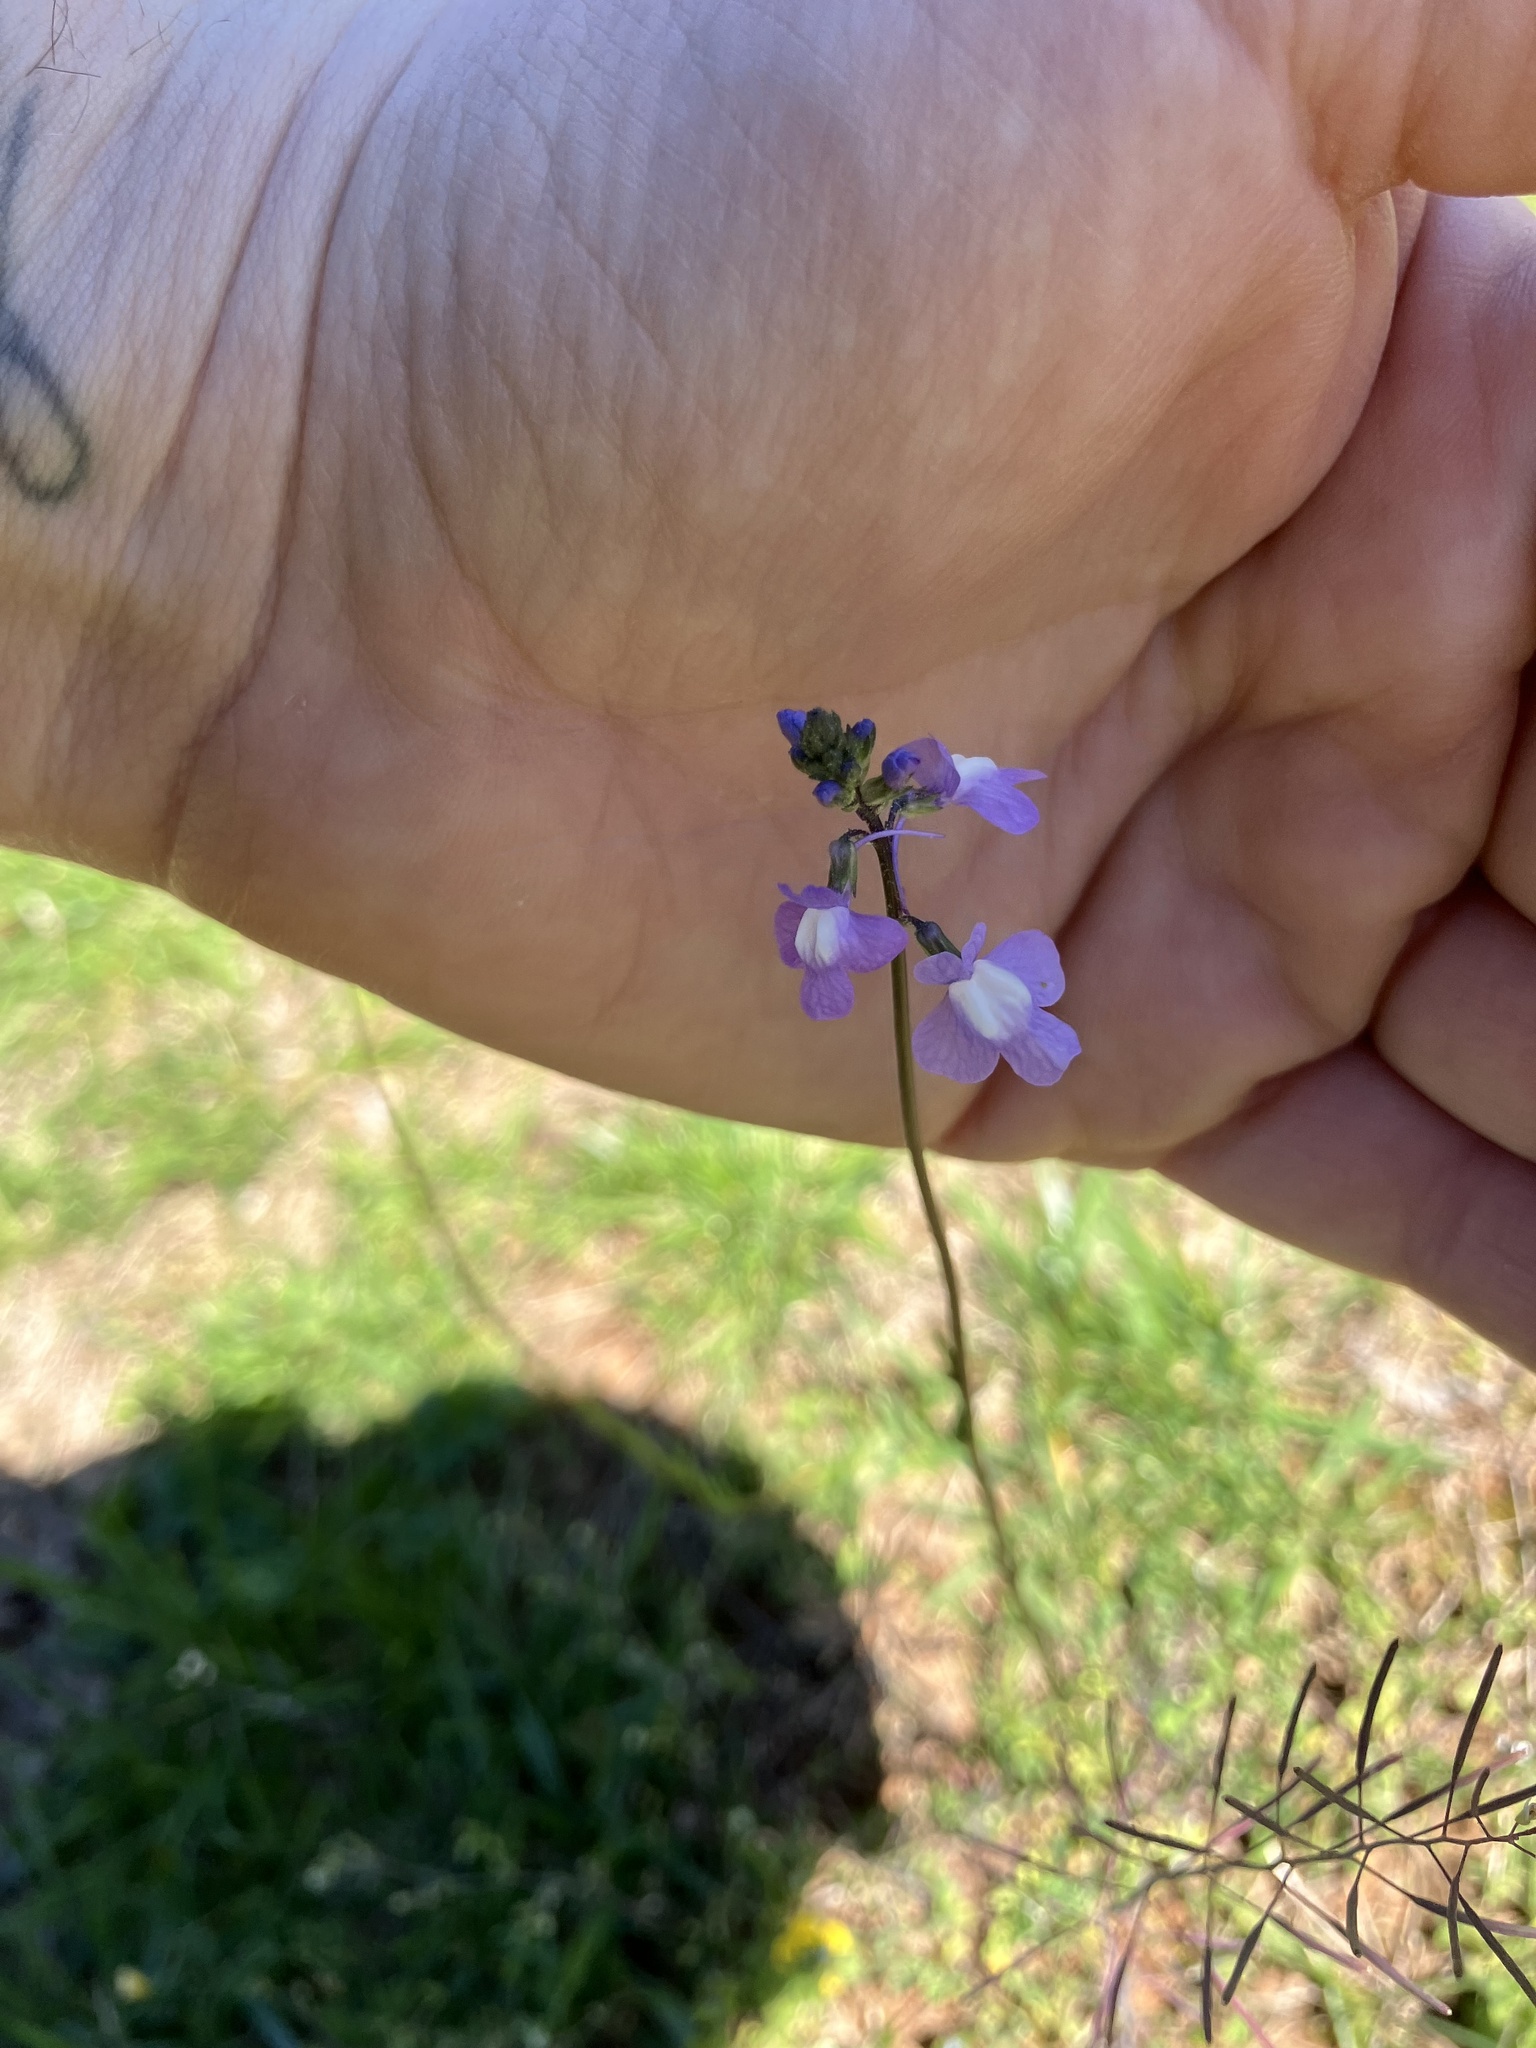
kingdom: Plantae
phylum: Tracheophyta
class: Magnoliopsida
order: Lamiales
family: Plantaginaceae
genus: Nuttallanthus
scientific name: Nuttallanthus canadensis
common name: Blue toadflax
